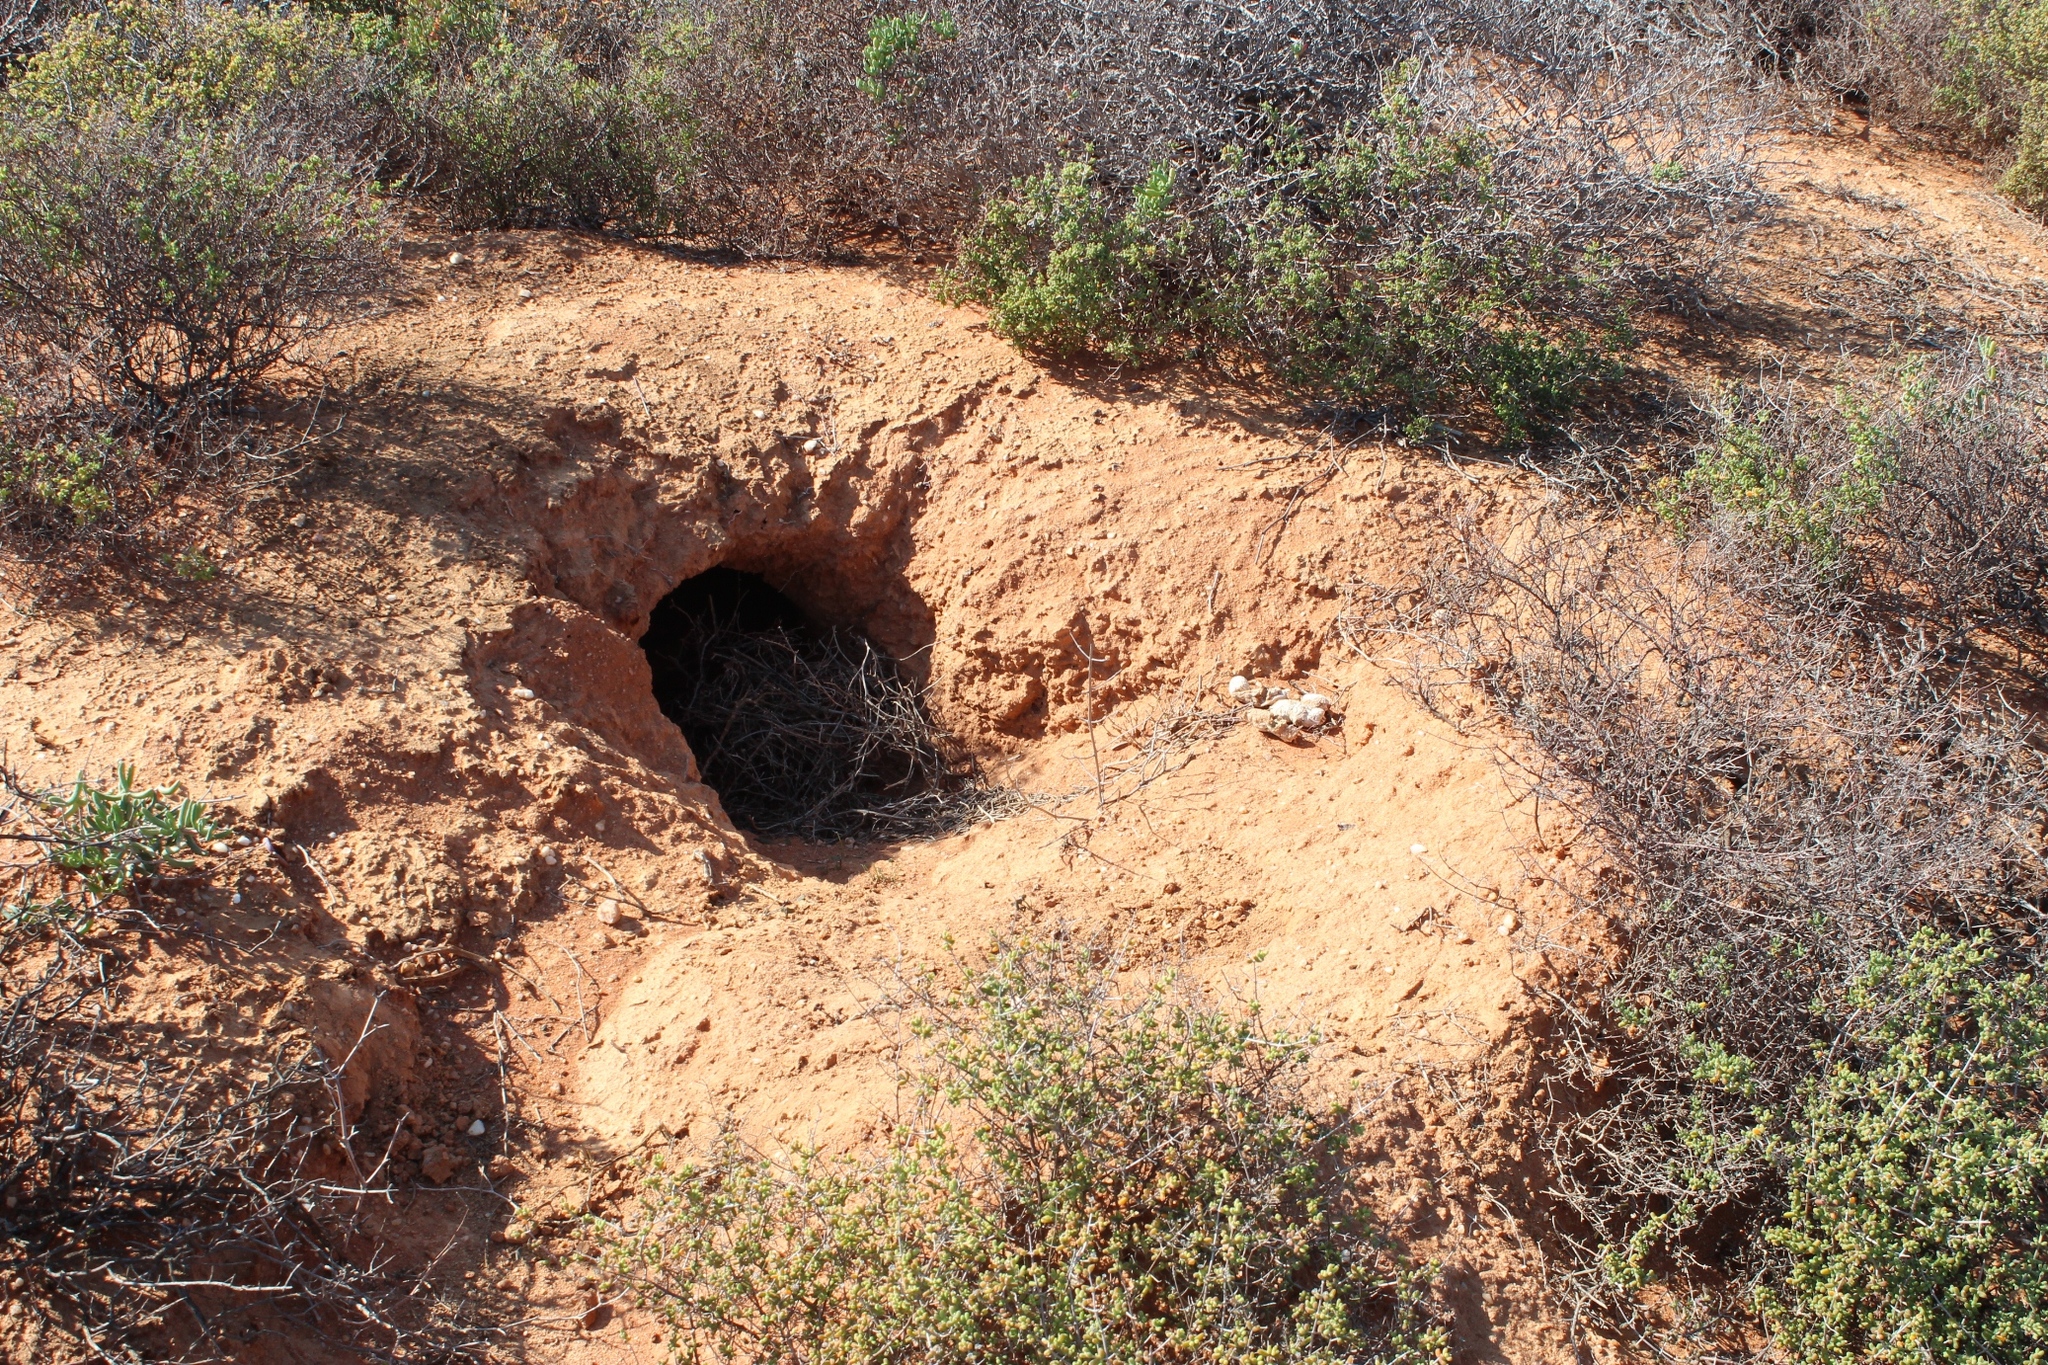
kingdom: Animalia
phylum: Chordata
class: Mammalia
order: Carnivora
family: Hyaenidae
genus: Hyaena
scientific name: Hyaena brunnea
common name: Brown hyena
